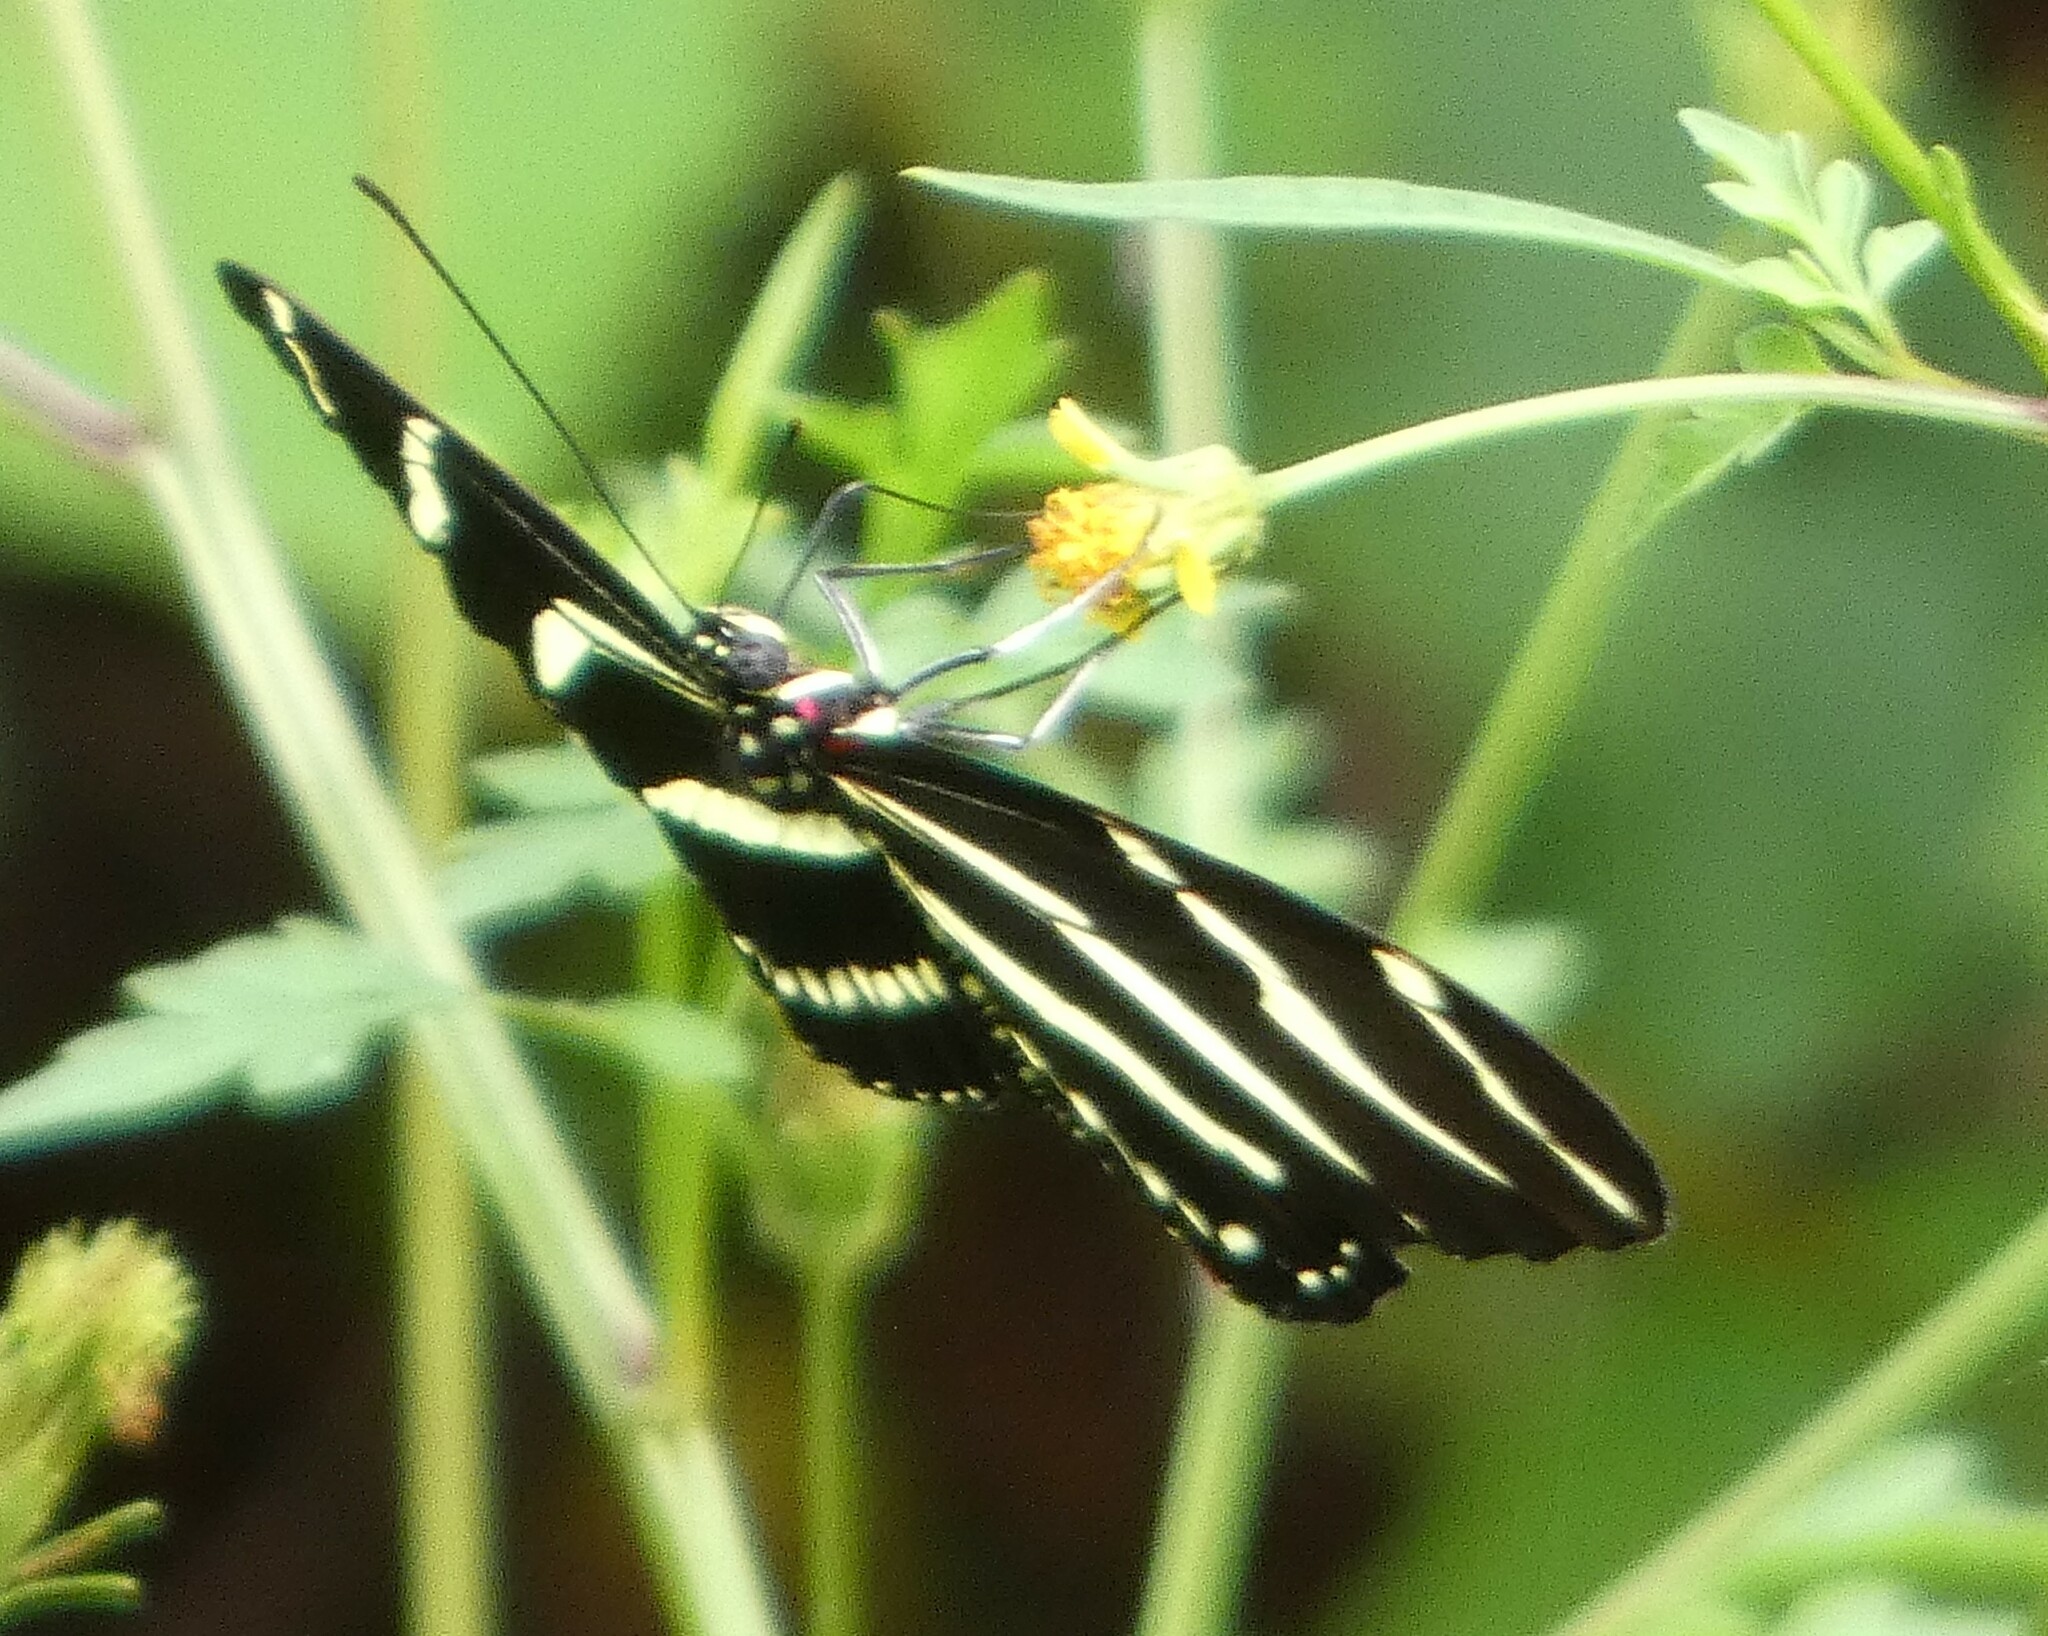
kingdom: Animalia
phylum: Arthropoda
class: Insecta
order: Lepidoptera
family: Nymphalidae
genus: Heliconius
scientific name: Heliconius charithonia
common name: Zebra long wing
